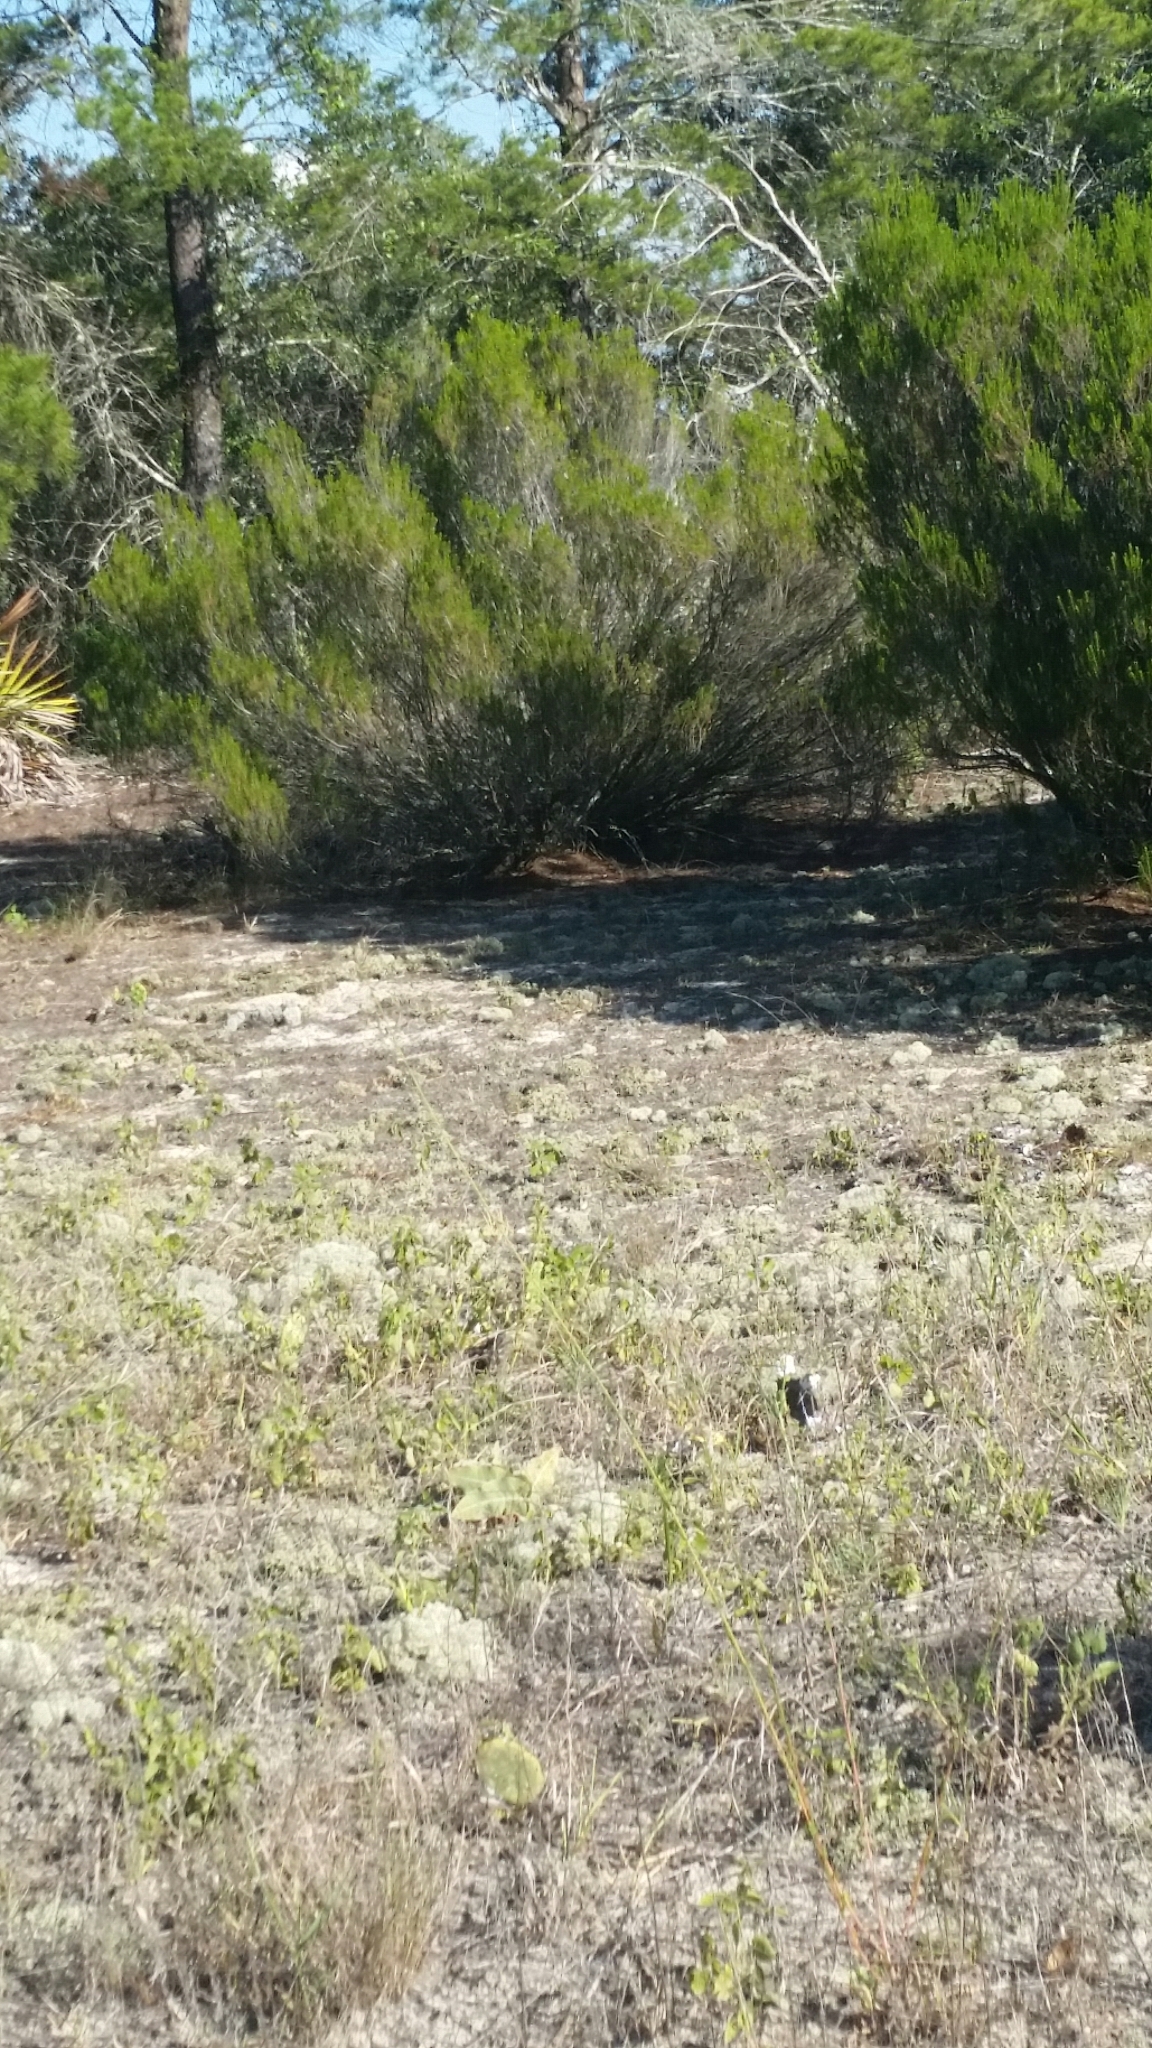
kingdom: Plantae
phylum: Tracheophyta
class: Magnoliopsida
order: Ericales
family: Ericaceae
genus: Ceratiola
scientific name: Ceratiola ericoides
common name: Sandhill-rosemary
